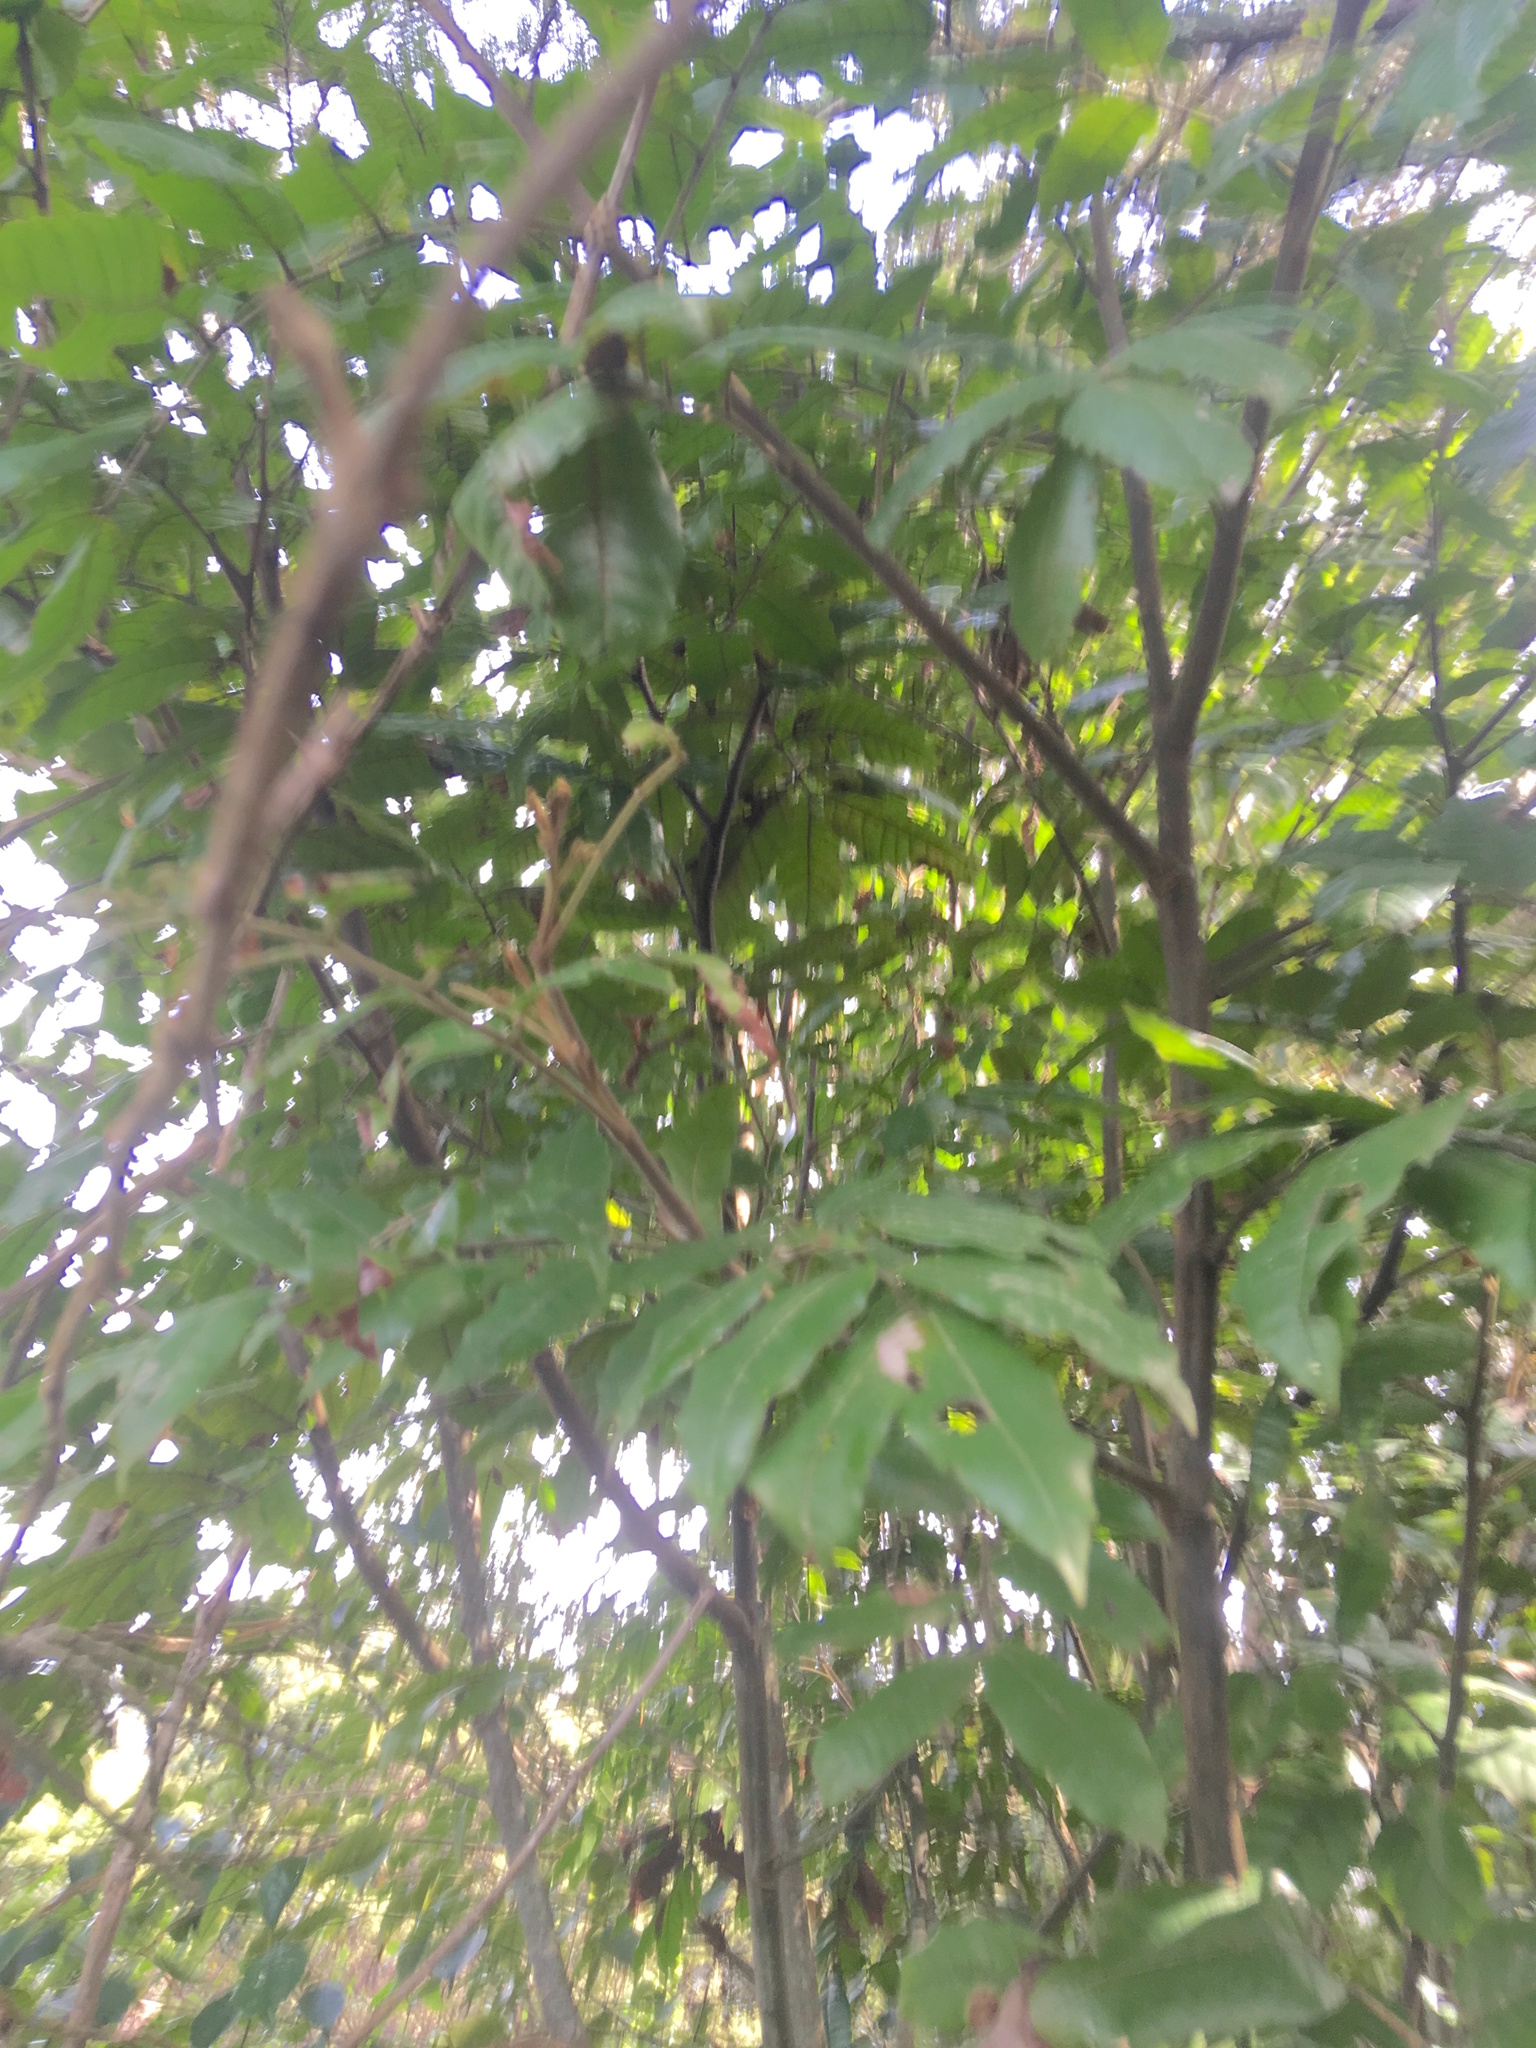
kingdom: Plantae
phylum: Tracheophyta
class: Magnoliopsida
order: Sapindales
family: Sapindaceae
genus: Alectryon
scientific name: Alectryon excelsus
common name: Three kings titoki
